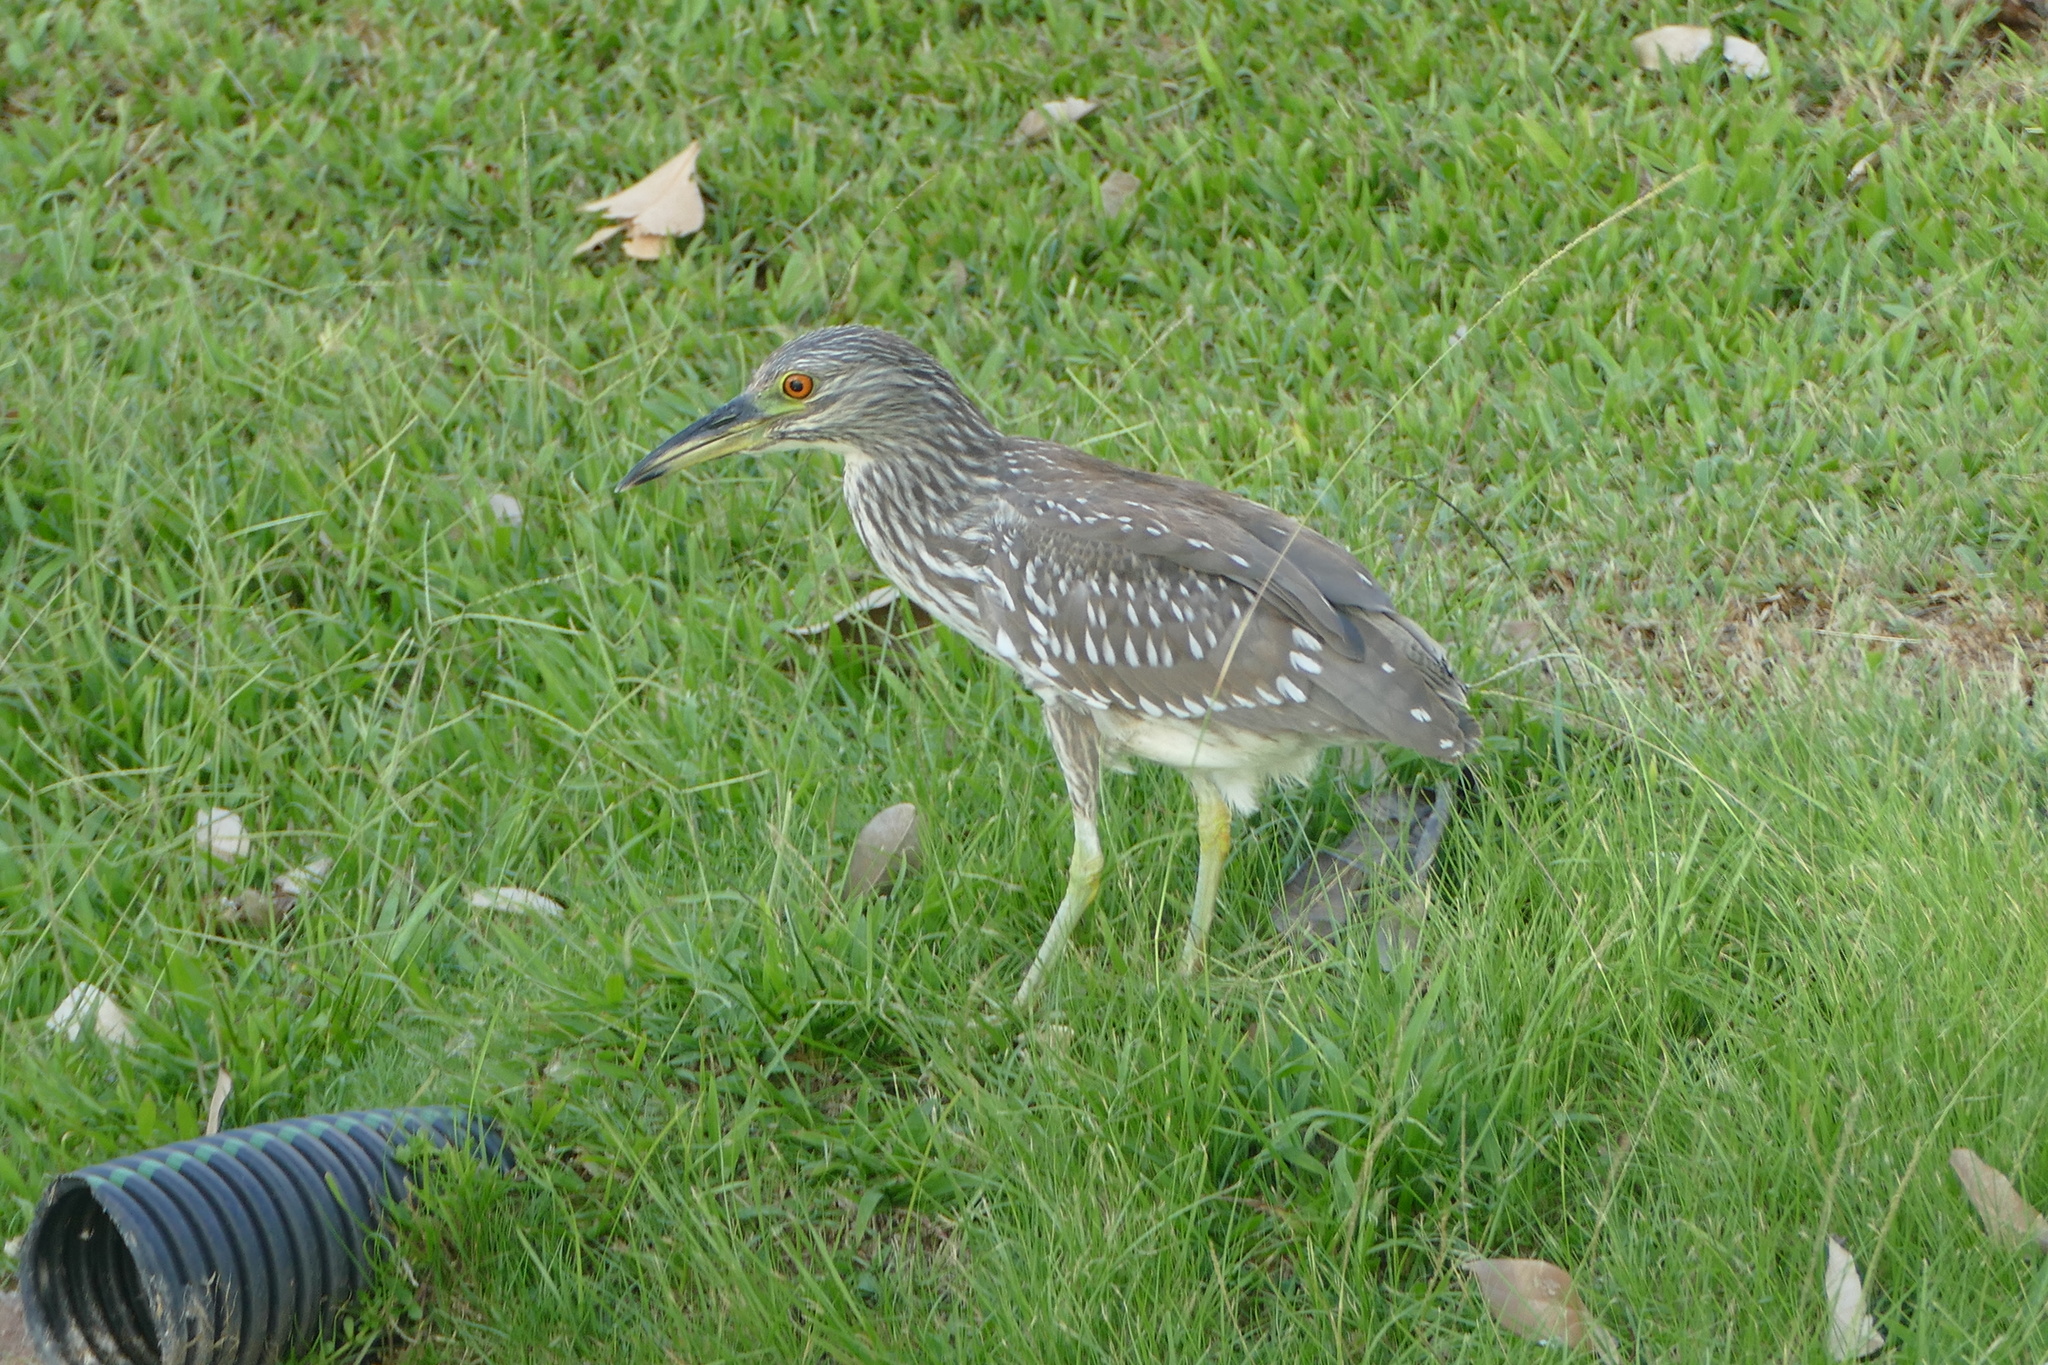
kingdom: Animalia
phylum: Chordata
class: Aves
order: Pelecaniformes
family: Ardeidae
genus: Nycticorax
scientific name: Nycticorax nycticorax
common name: Black-crowned night heron
